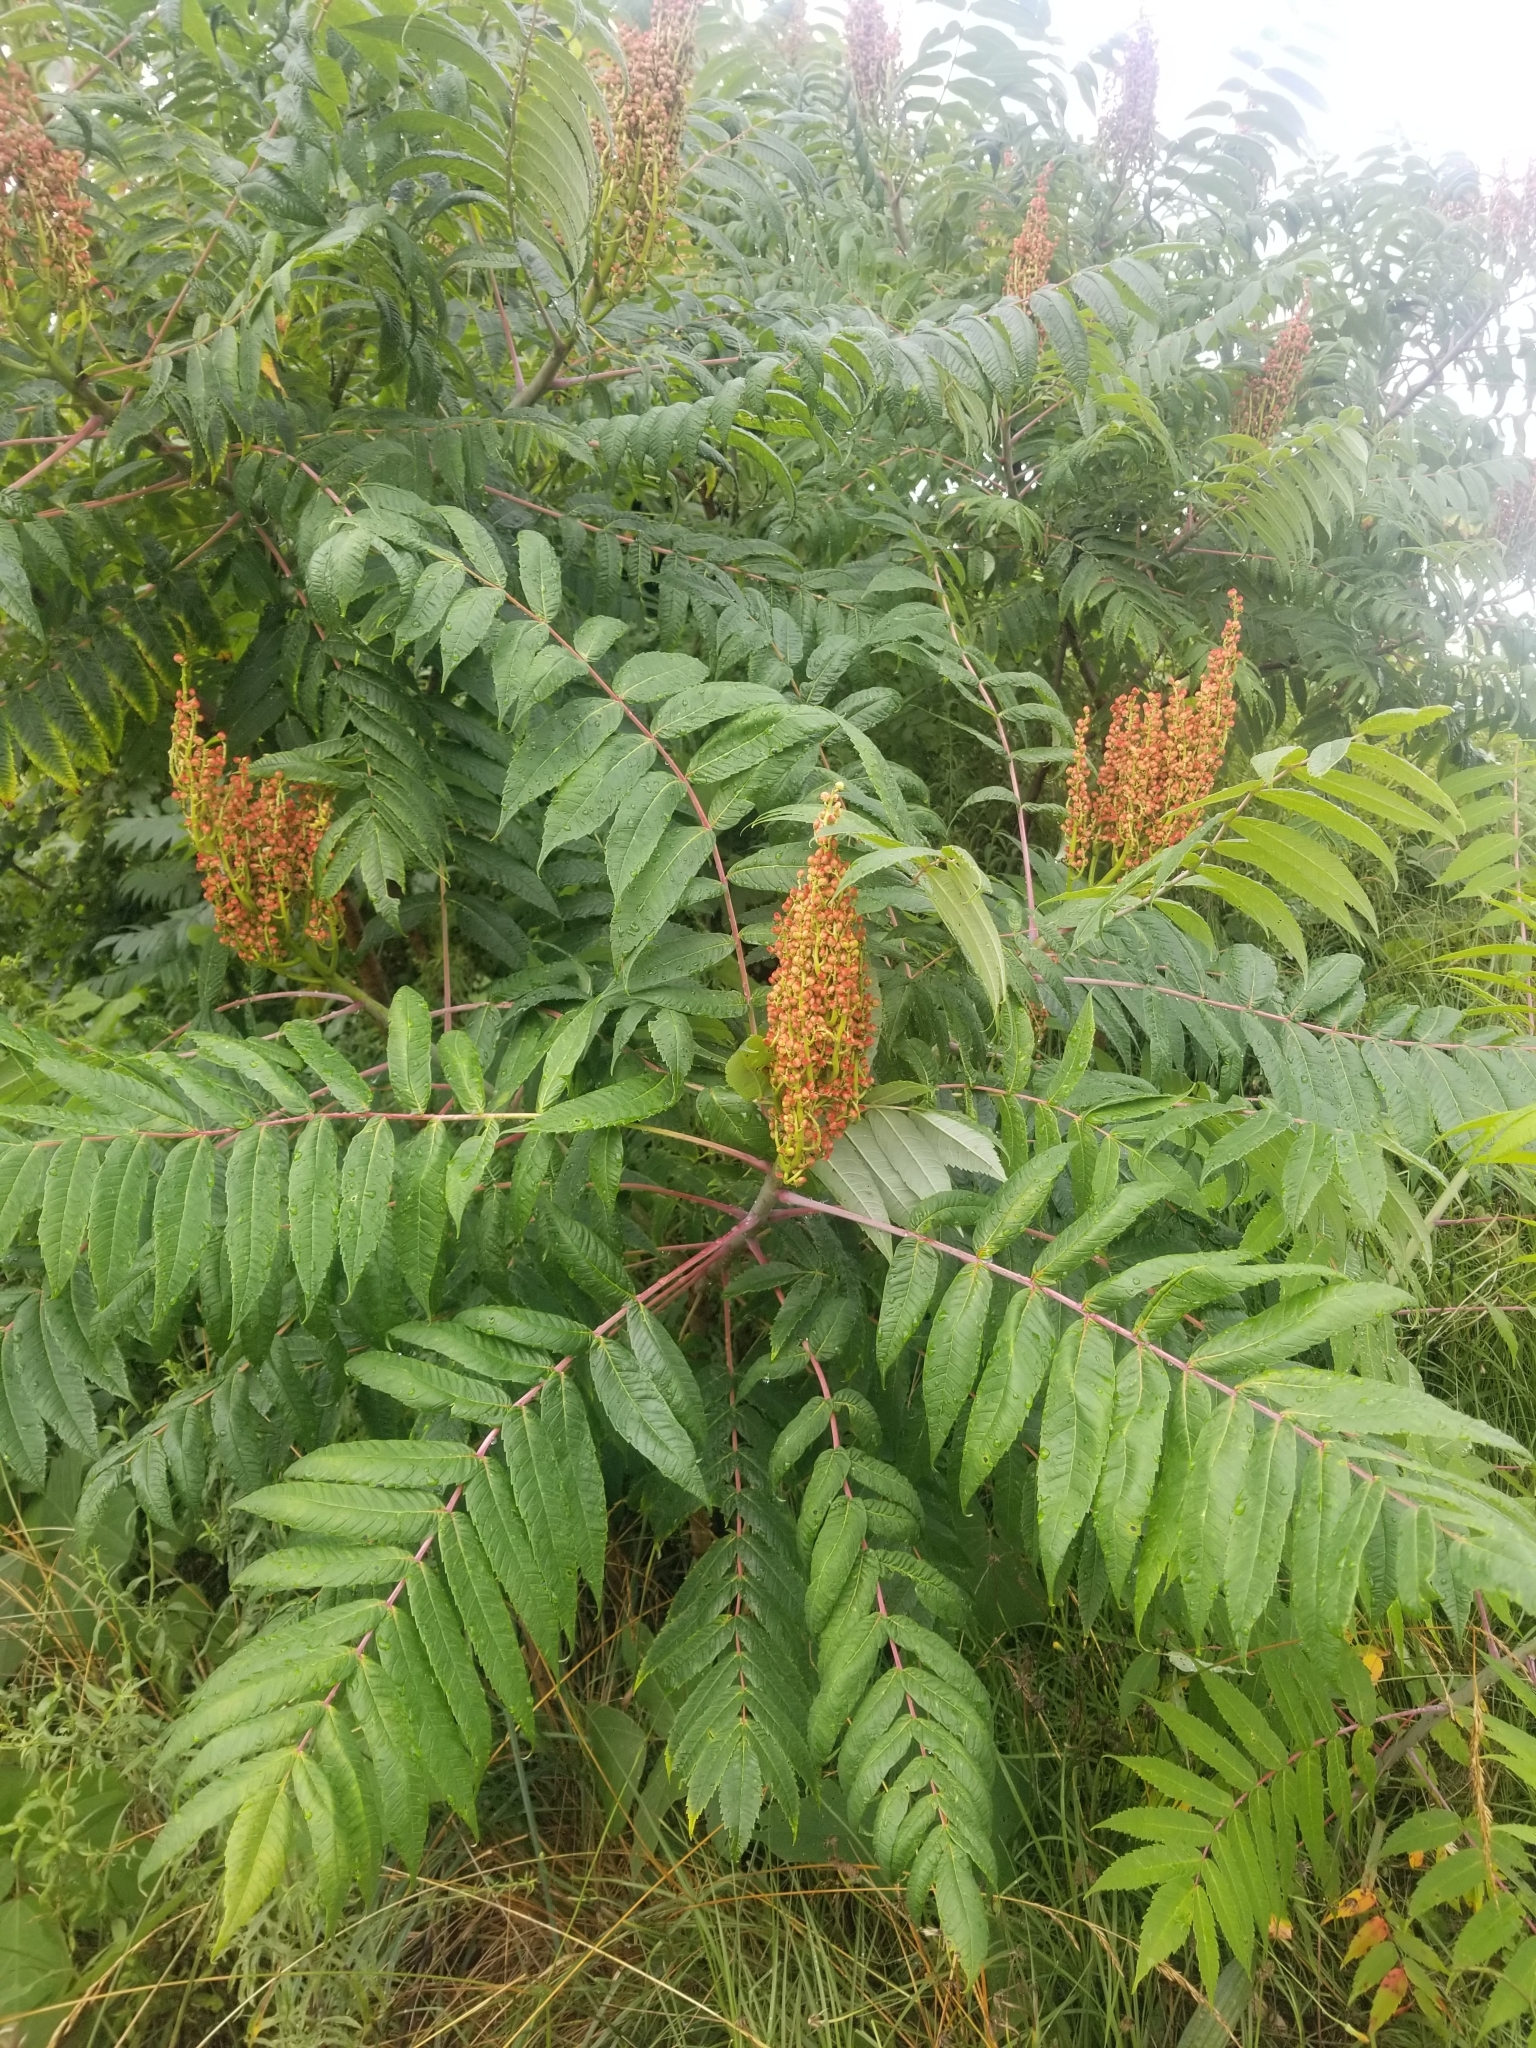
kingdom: Plantae
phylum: Tracheophyta
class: Magnoliopsida
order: Sapindales
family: Anacardiaceae
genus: Rhus
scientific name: Rhus glabra
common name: Scarlet sumac
